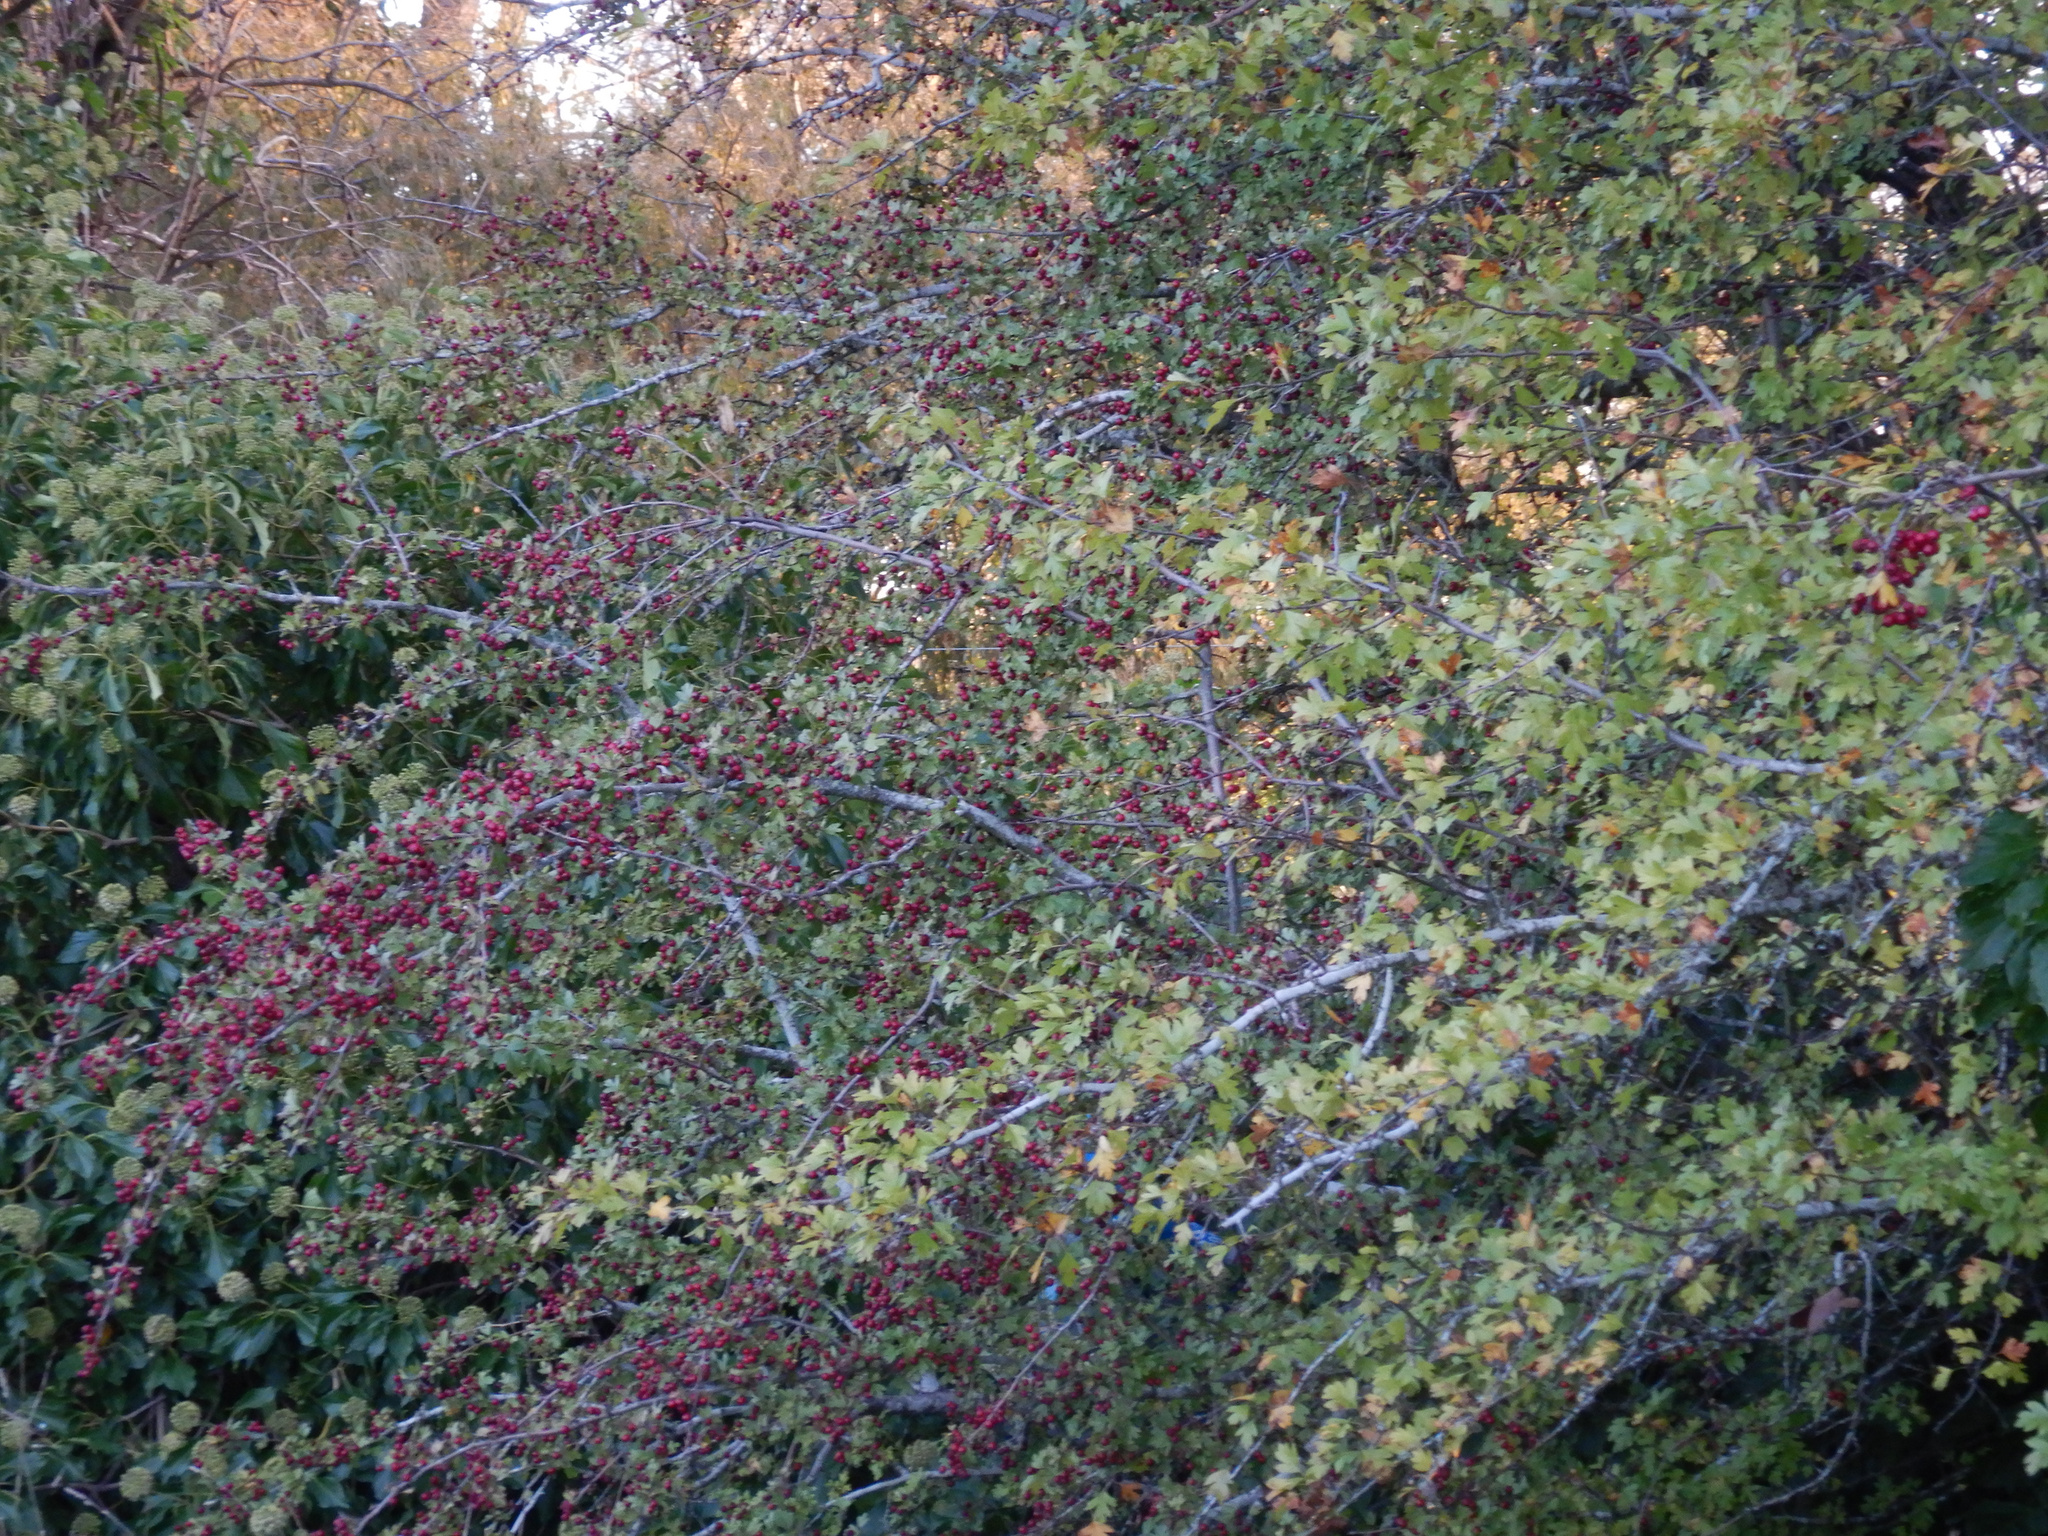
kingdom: Plantae
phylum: Tracheophyta
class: Magnoliopsida
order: Rosales
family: Rosaceae
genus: Crataegus
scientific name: Crataegus monogyna
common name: Hawthorn
